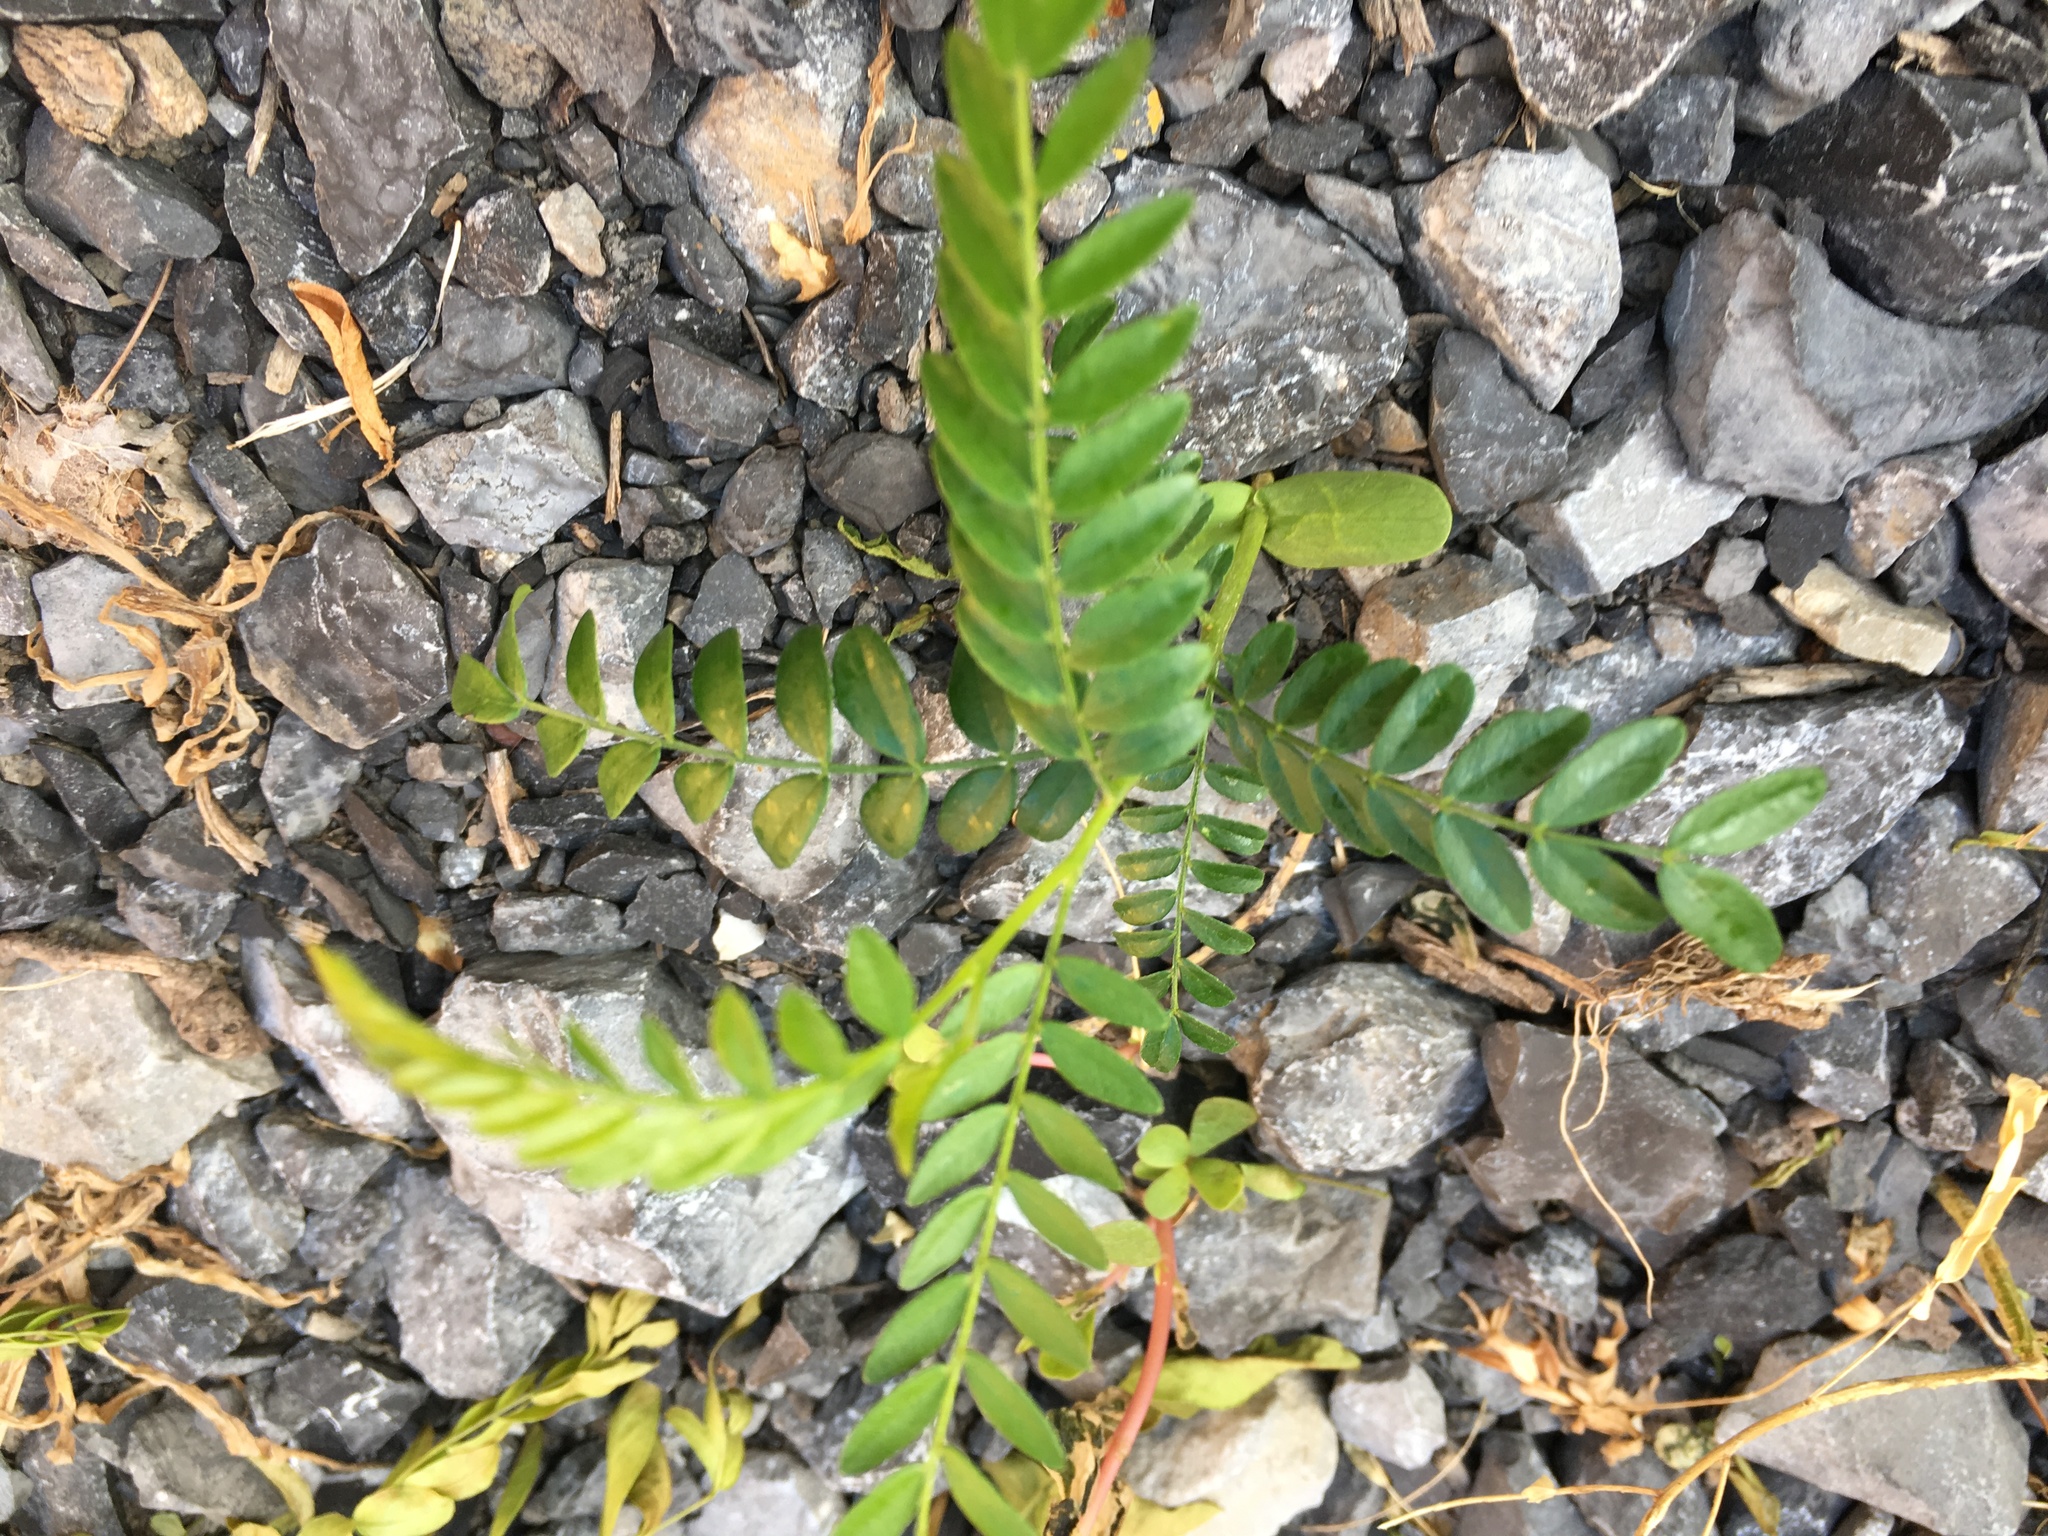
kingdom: Plantae
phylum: Tracheophyta
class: Magnoliopsida
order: Fabales
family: Fabaceae
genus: Gleditsia
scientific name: Gleditsia triacanthos
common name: Common honeylocust
